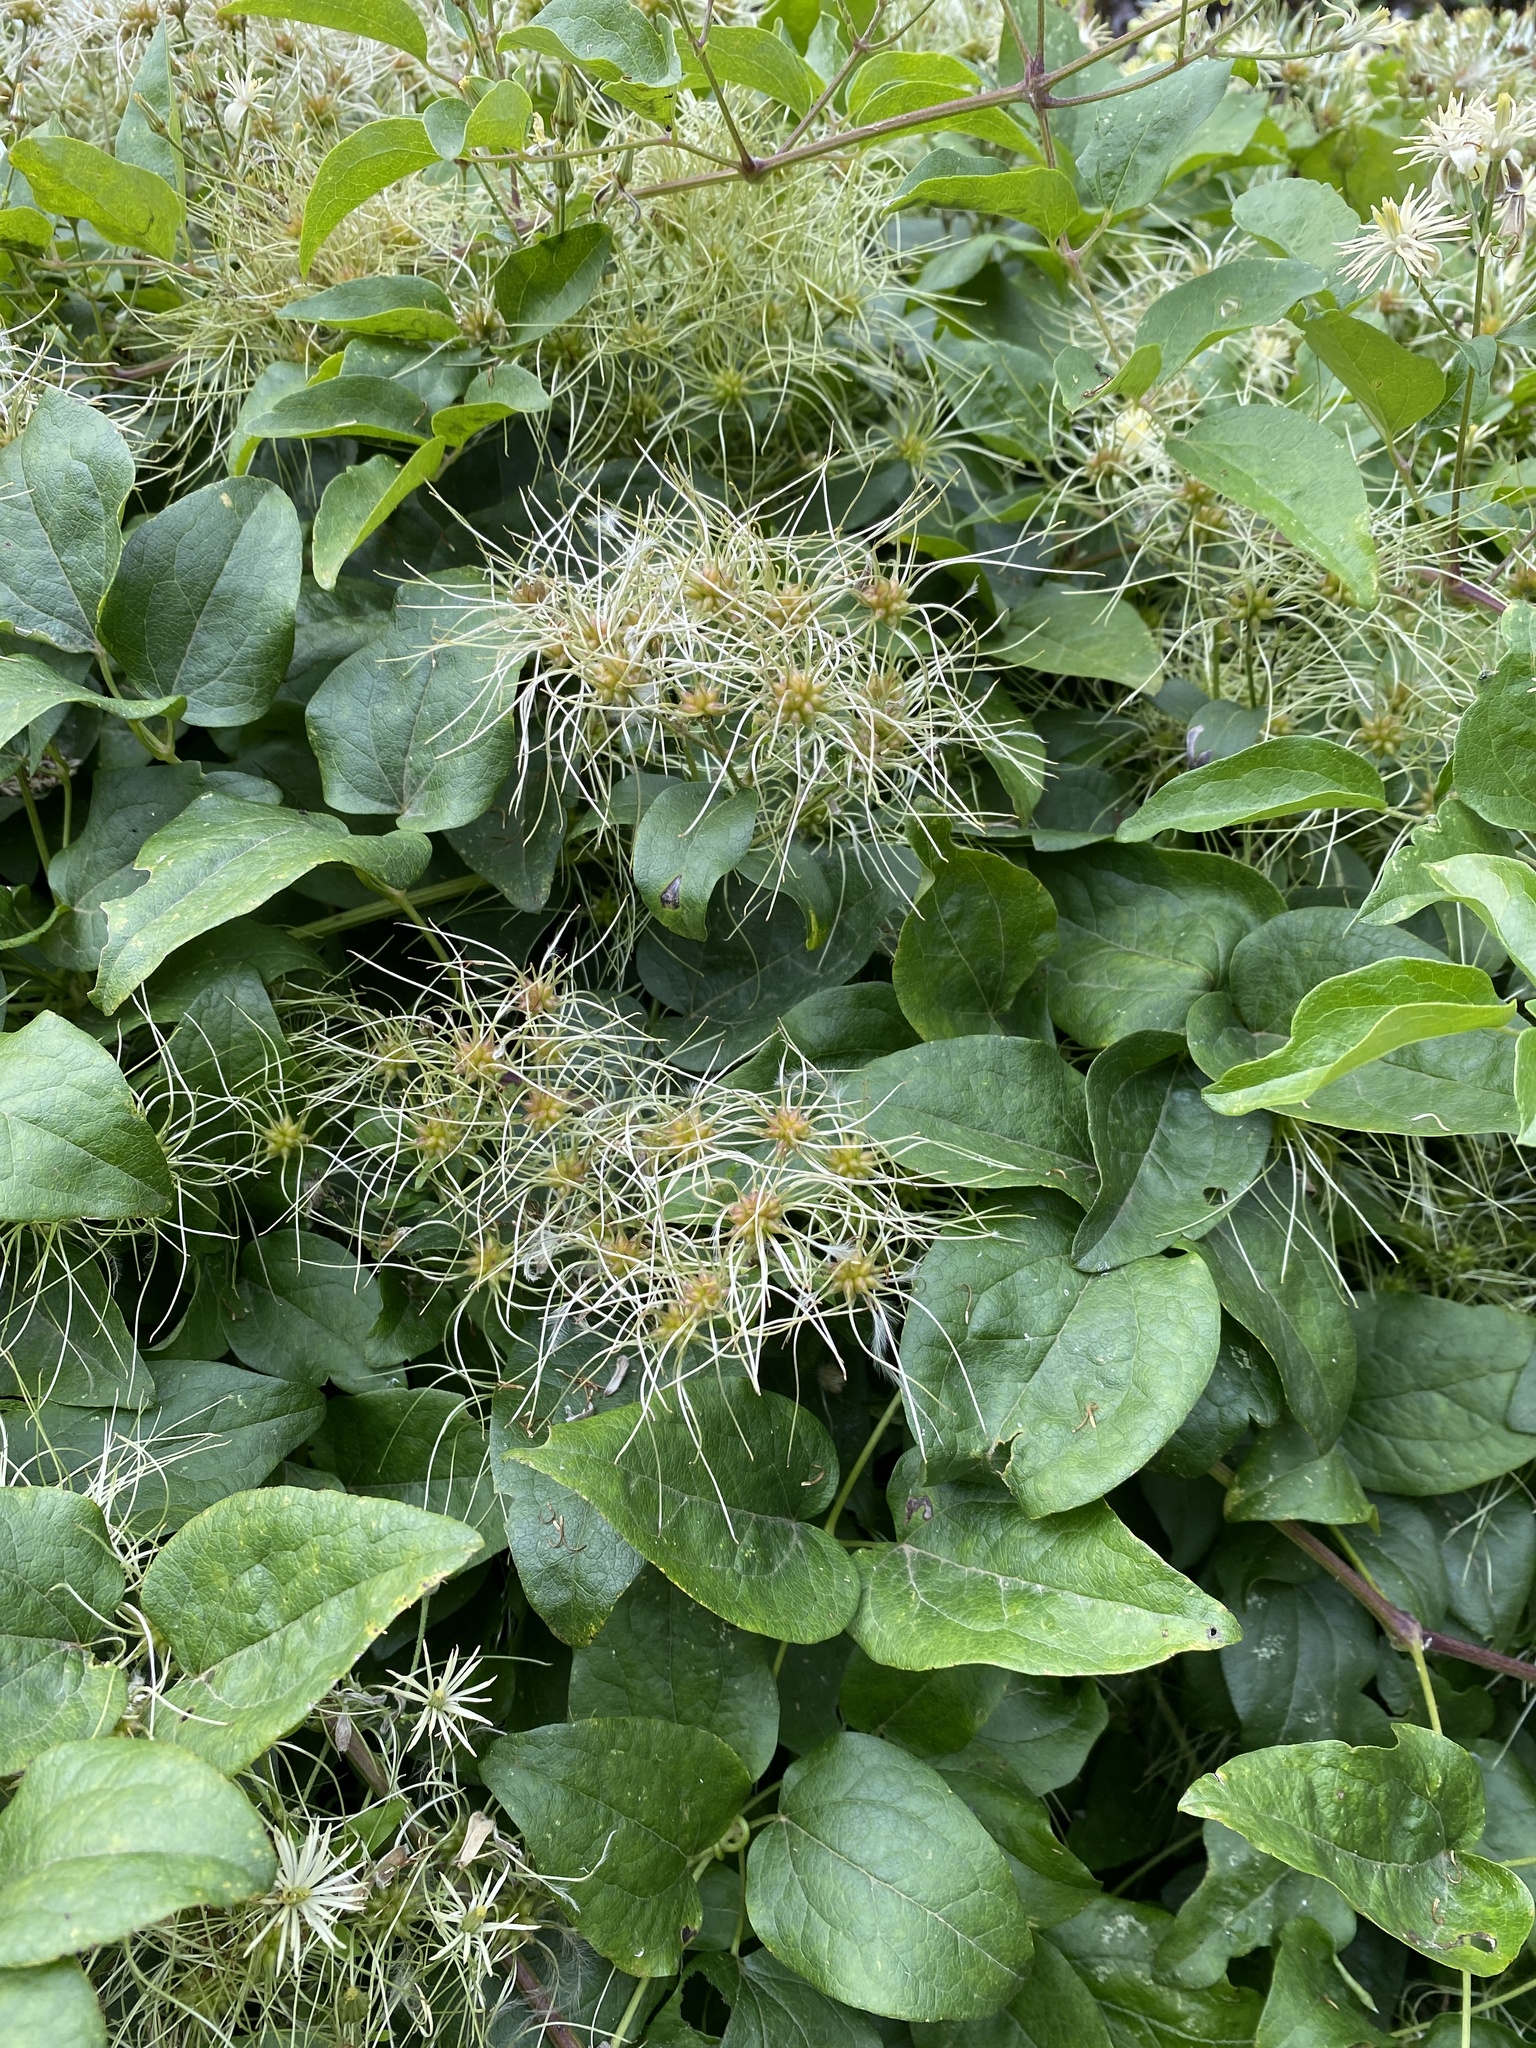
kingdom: Plantae
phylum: Tracheophyta
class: Magnoliopsida
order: Ranunculales
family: Ranunculaceae
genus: Clematis
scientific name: Clematis vitalba
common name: Evergreen clematis
